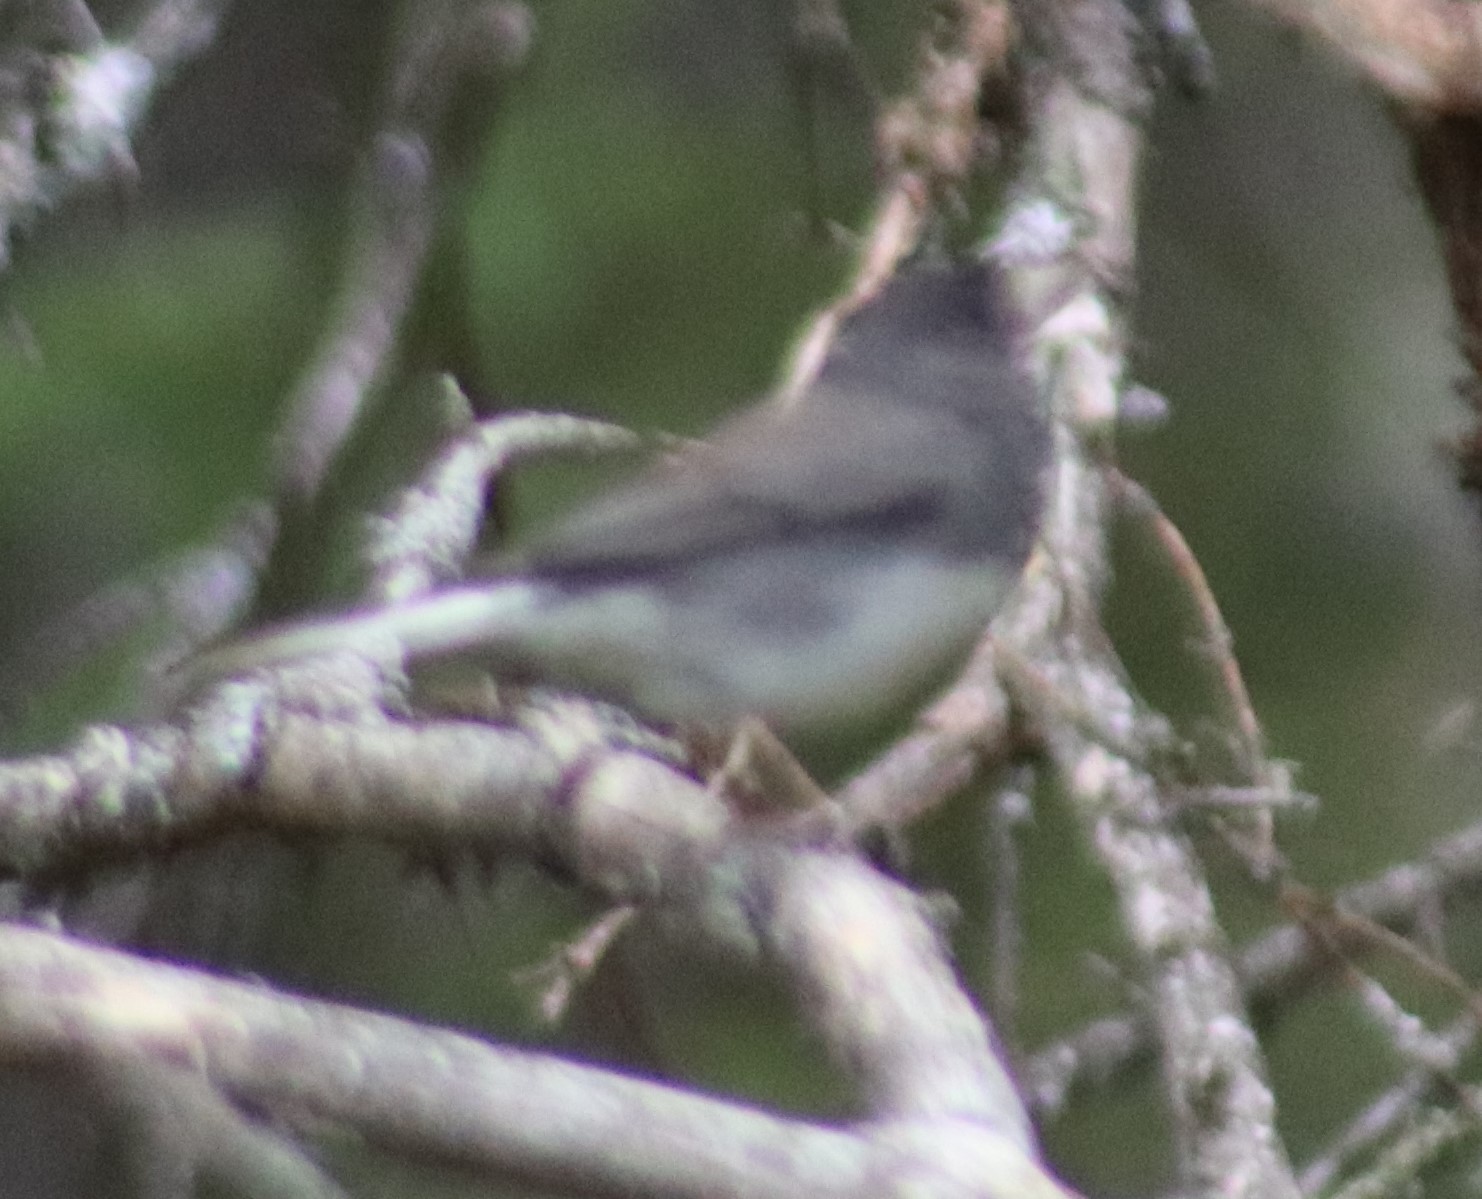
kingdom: Animalia
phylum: Chordata
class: Aves
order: Passeriformes
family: Passerellidae
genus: Junco
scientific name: Junco hyemalis
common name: Dark-eyed junco
